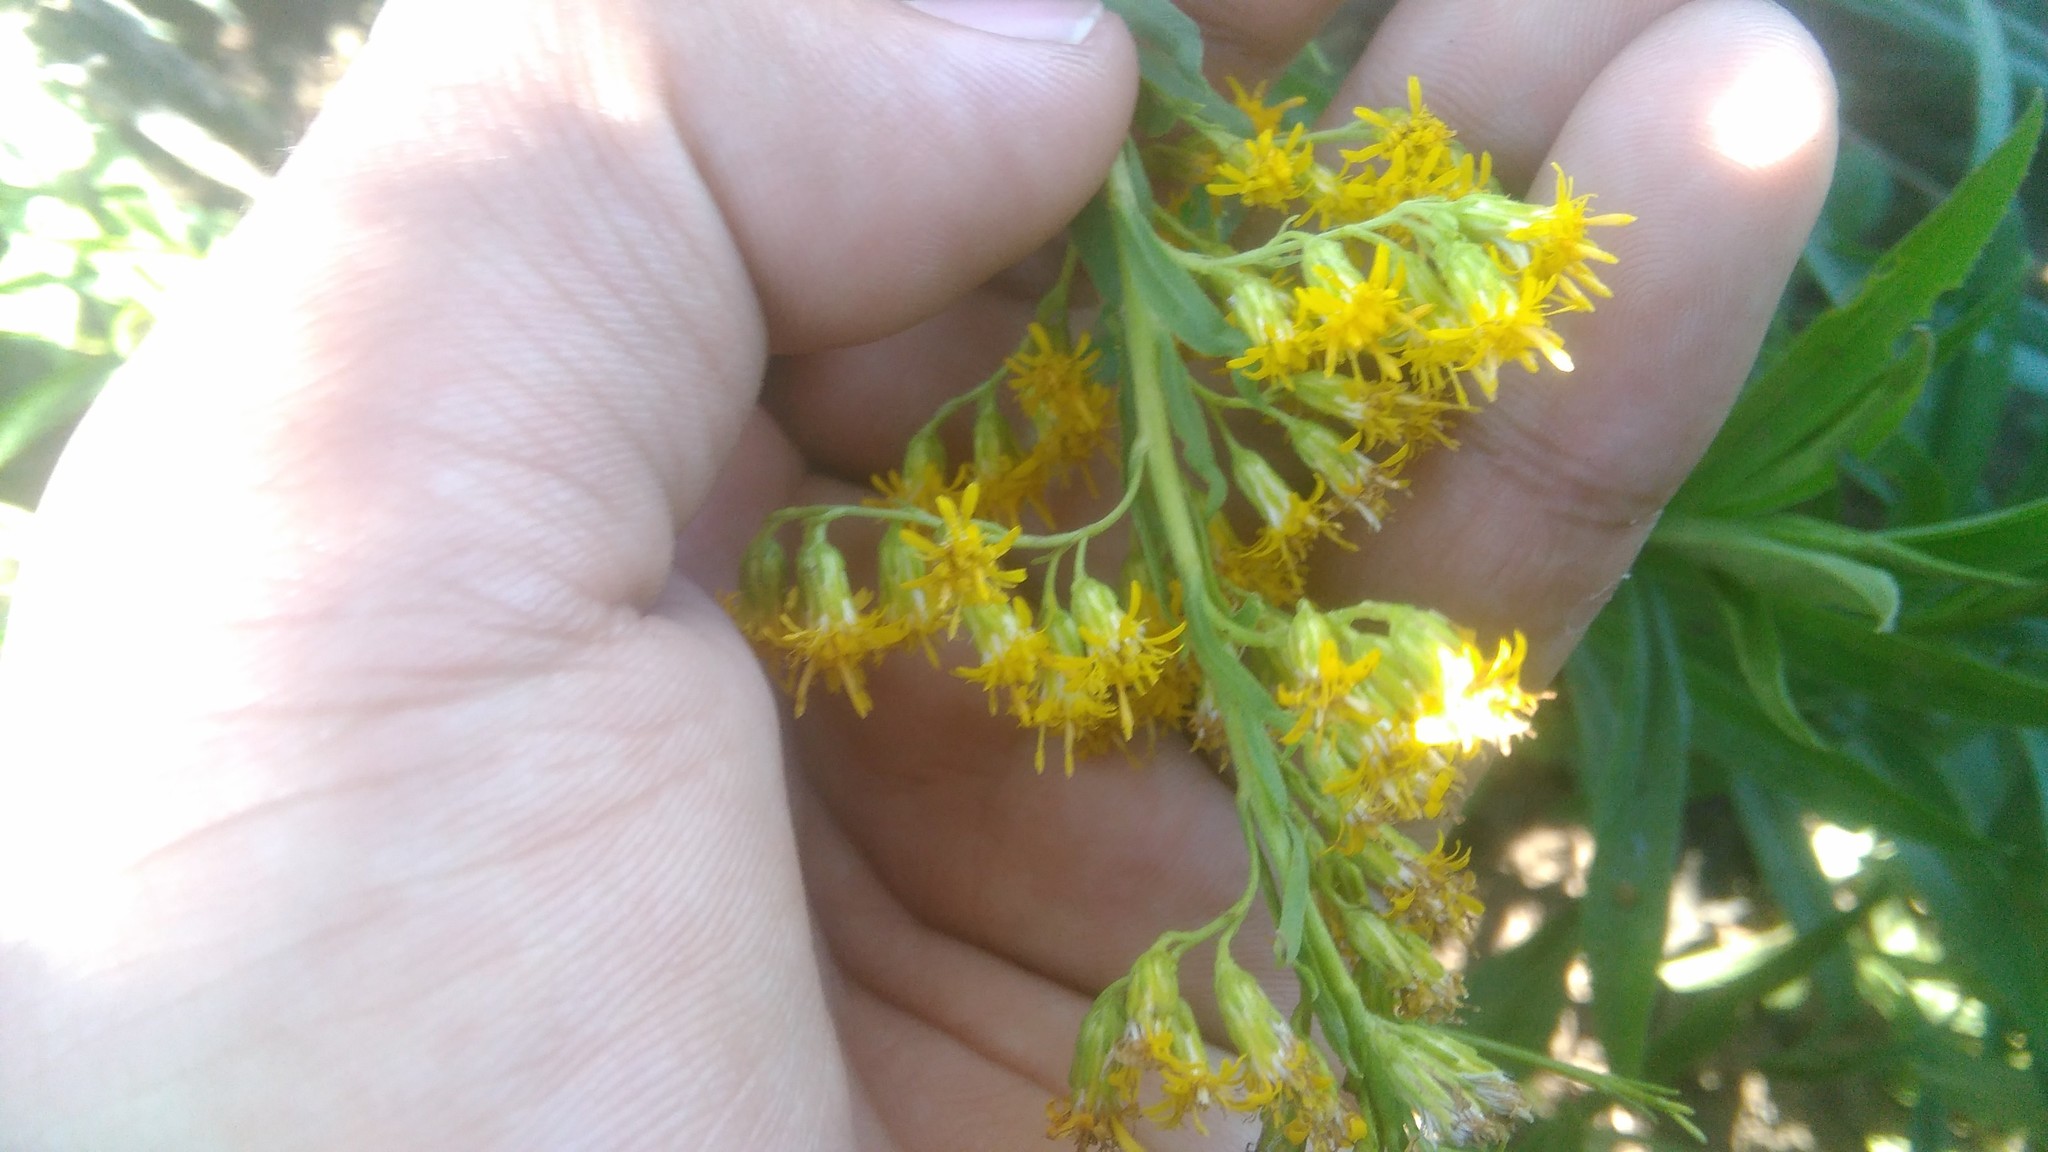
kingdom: Plantae
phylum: Tracheophyta
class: Magnoliopsida
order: Asterales
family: Asteraceae
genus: Solidago
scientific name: Solidago chilensis
